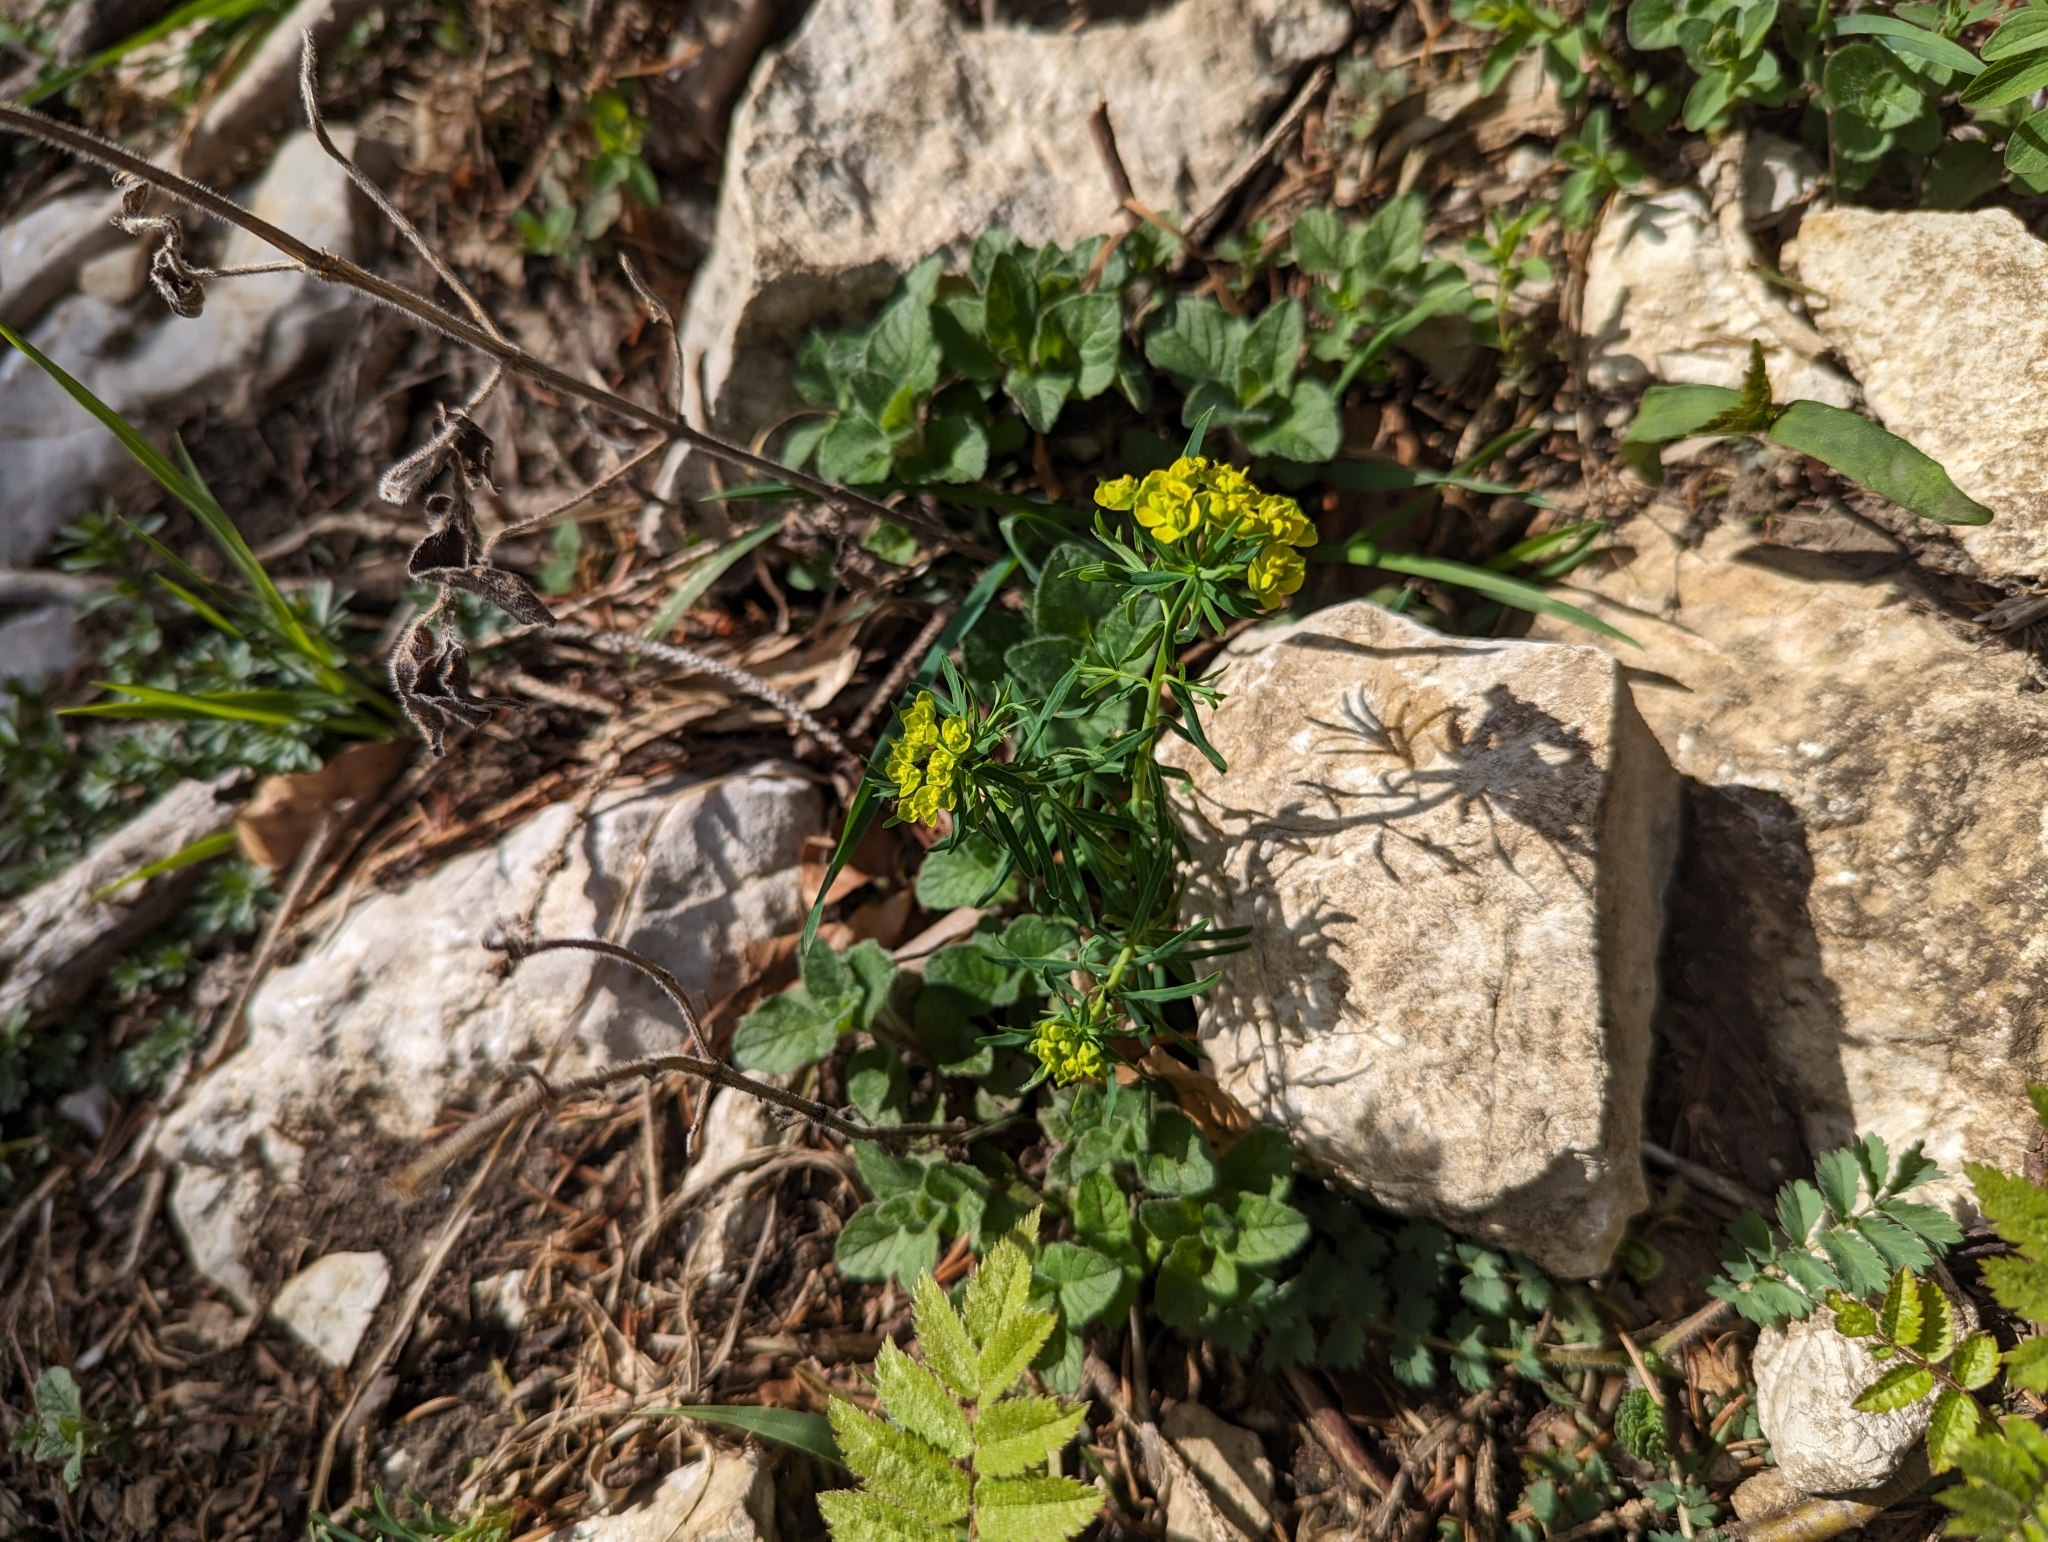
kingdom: Plantae
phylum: Tracheophyta
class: Magnoliopsida
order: Malpighiales
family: Euphorbiaceae
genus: Euphorbia
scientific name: Euphorbia cyparissias
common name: Cypress spurge
